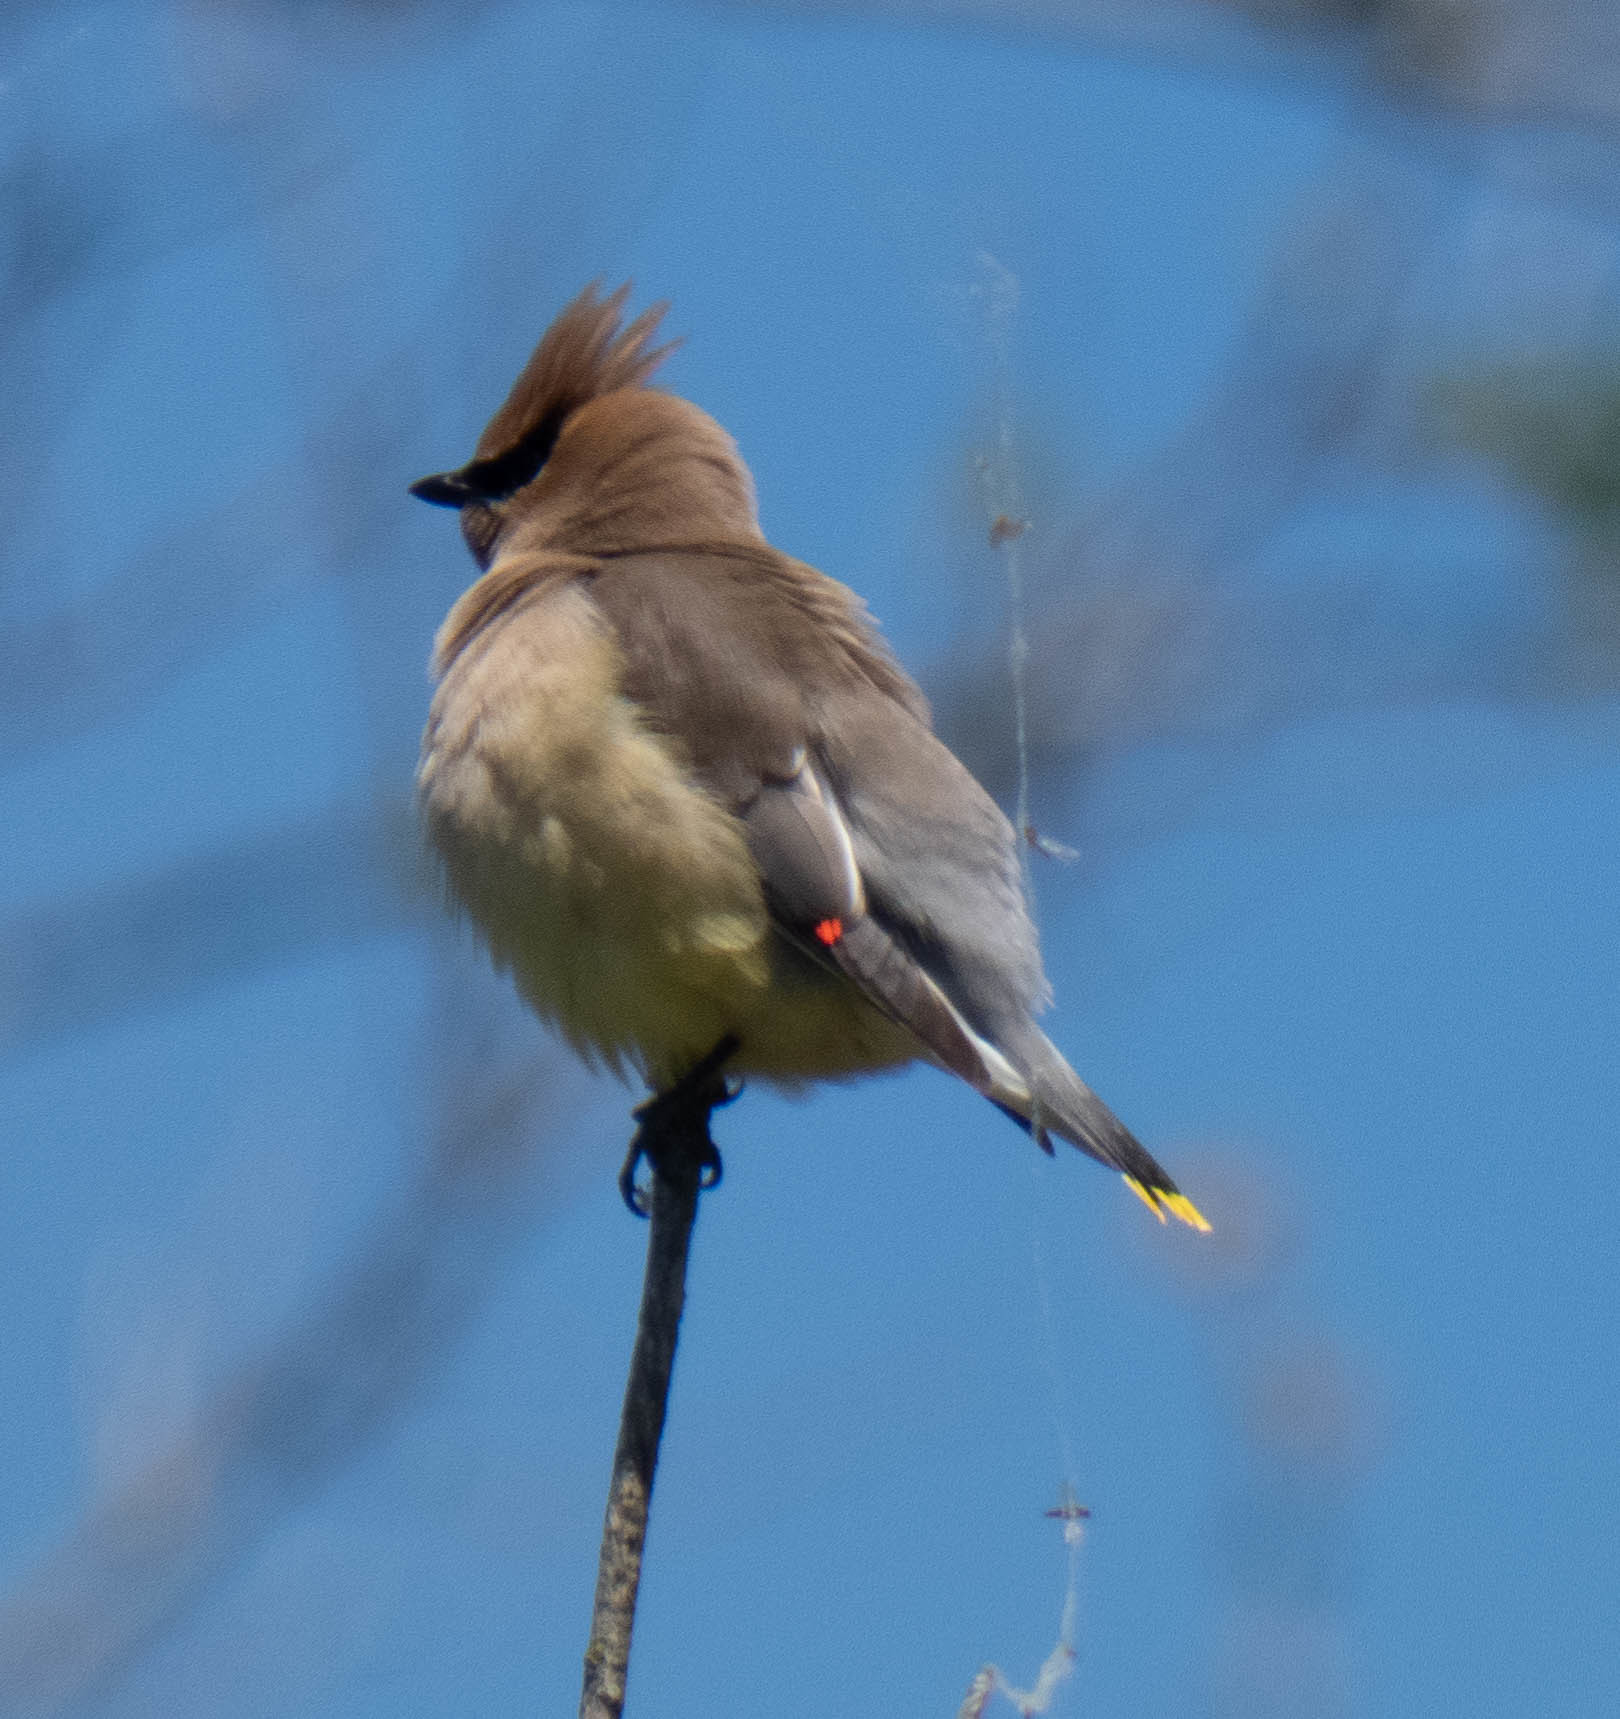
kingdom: Animalia
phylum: Chordata
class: Aves
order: Passeriformes
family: Bombycillidae
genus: Bombycilla
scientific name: Bombycilla cedrorum
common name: Cedar waxwing
